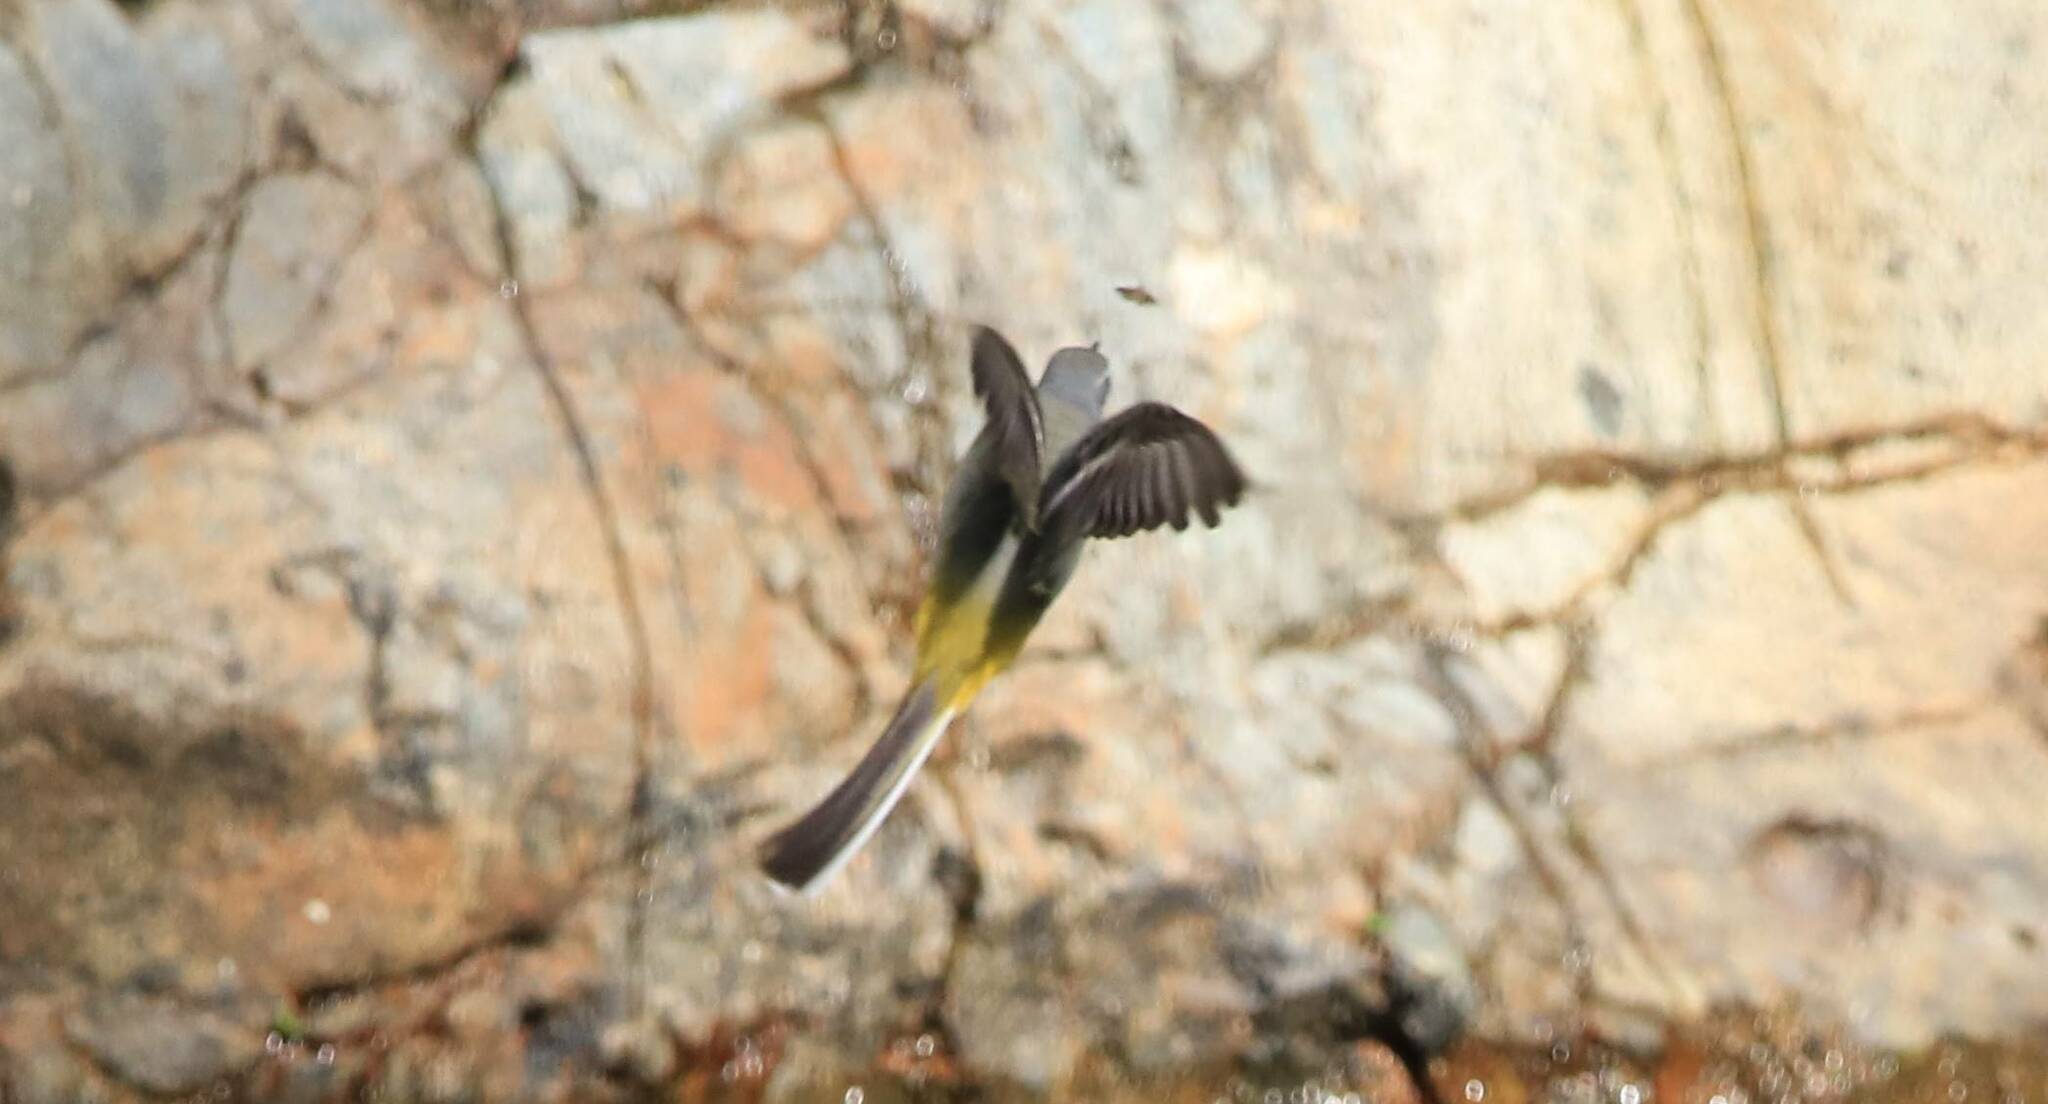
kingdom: Animalia
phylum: Chordata
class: Aves
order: Passeriformes
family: Motacillidae
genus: Motacilla
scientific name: Motacilla cinerea
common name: Grey wagtail
